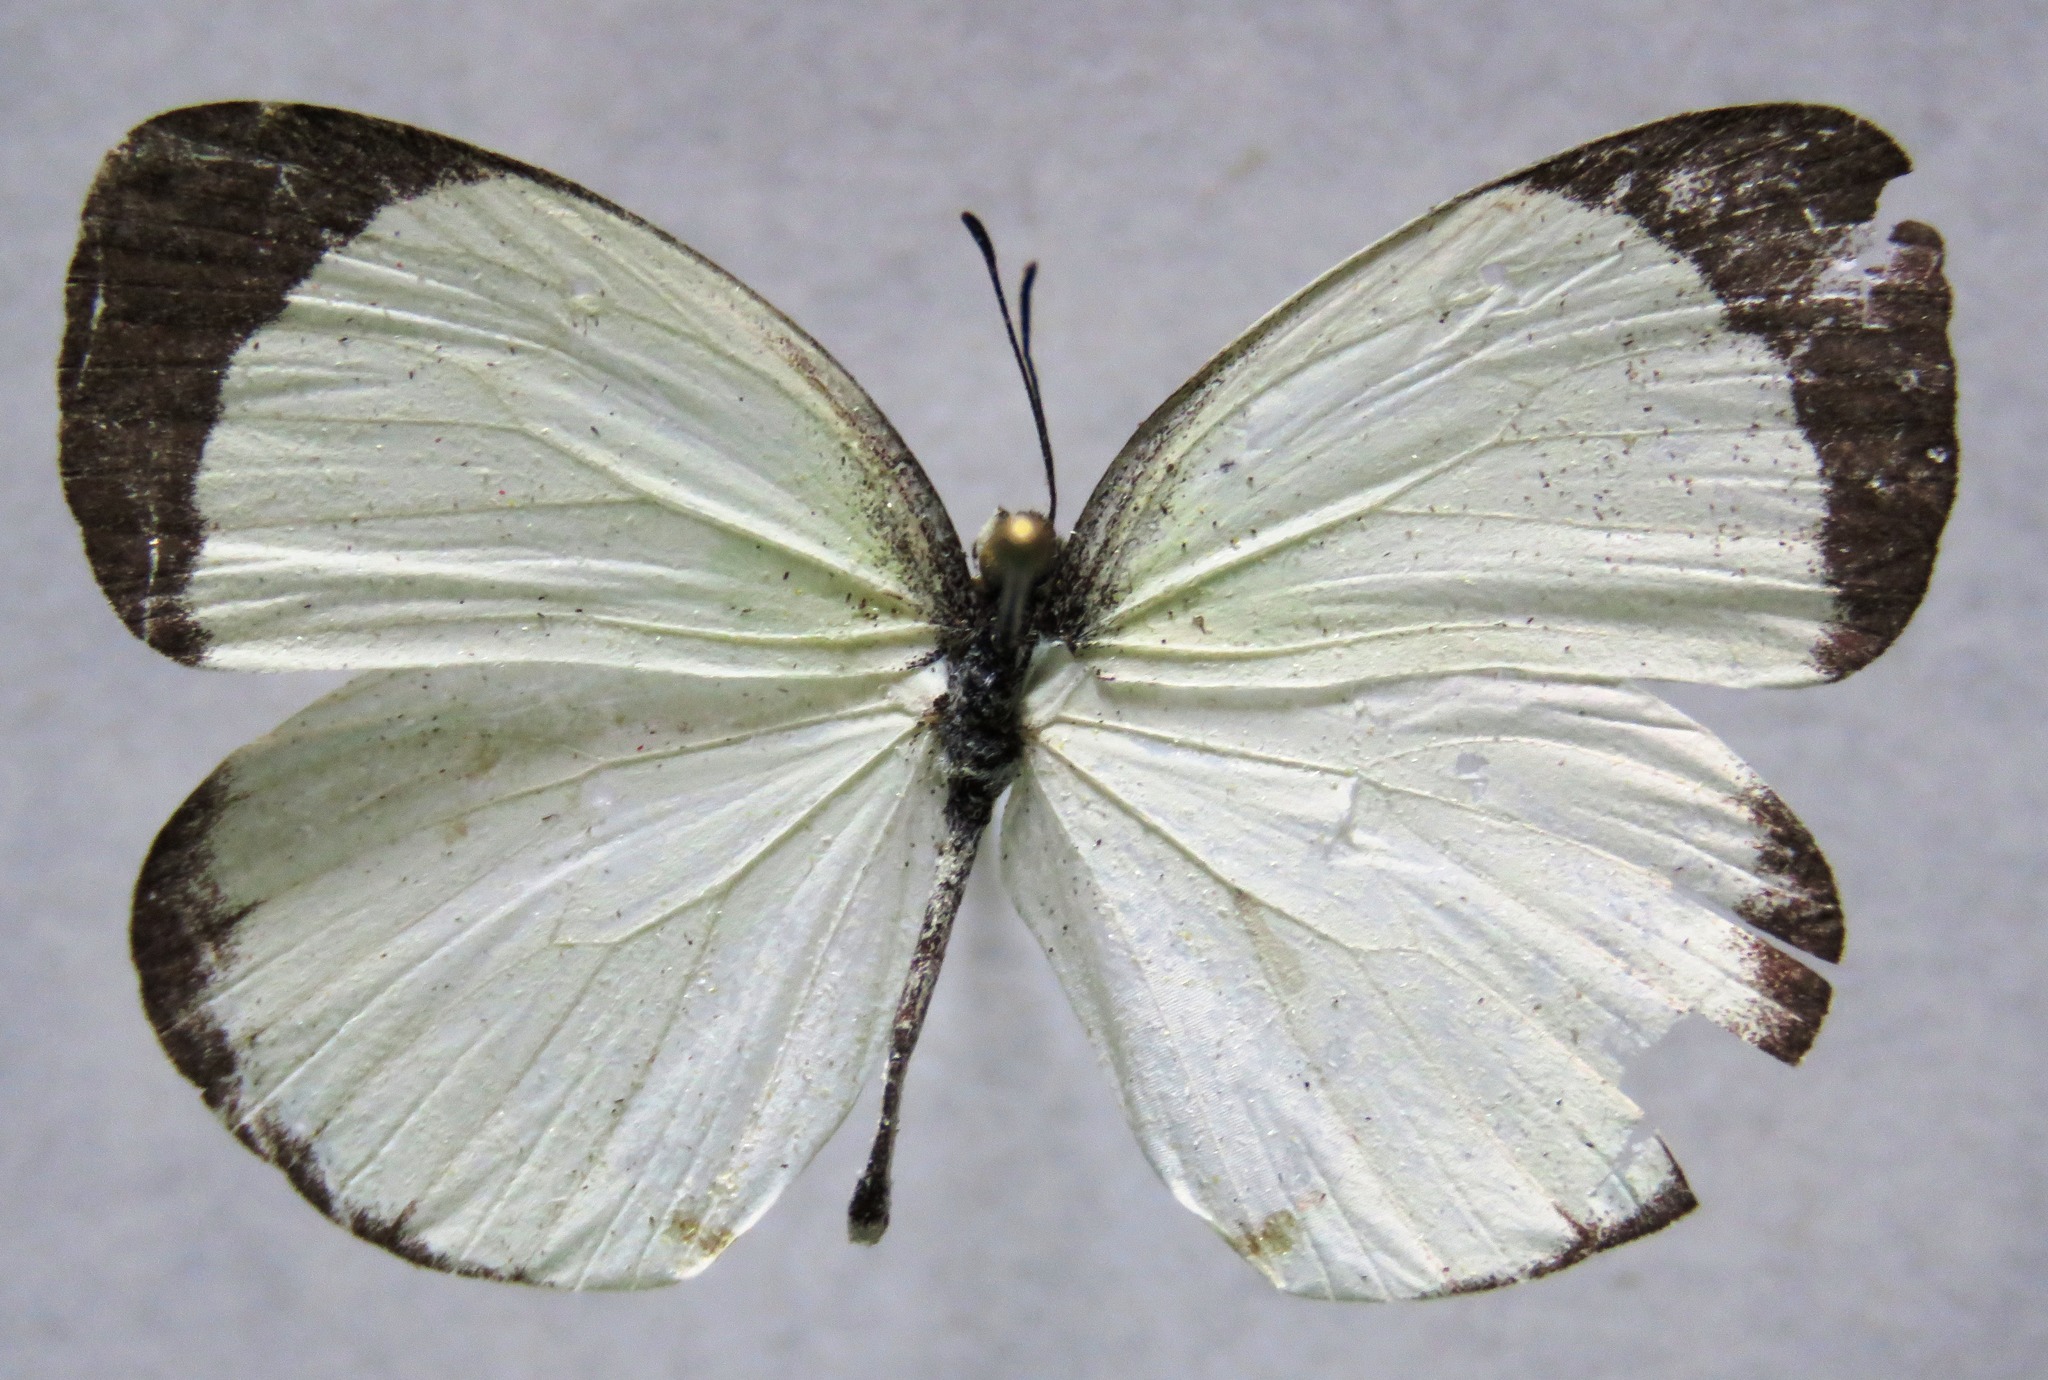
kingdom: Animalia
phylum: Arthropoda
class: Insecta
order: Lepidoptera
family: Pieridae
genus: Abaeis
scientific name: Abaeis albula
